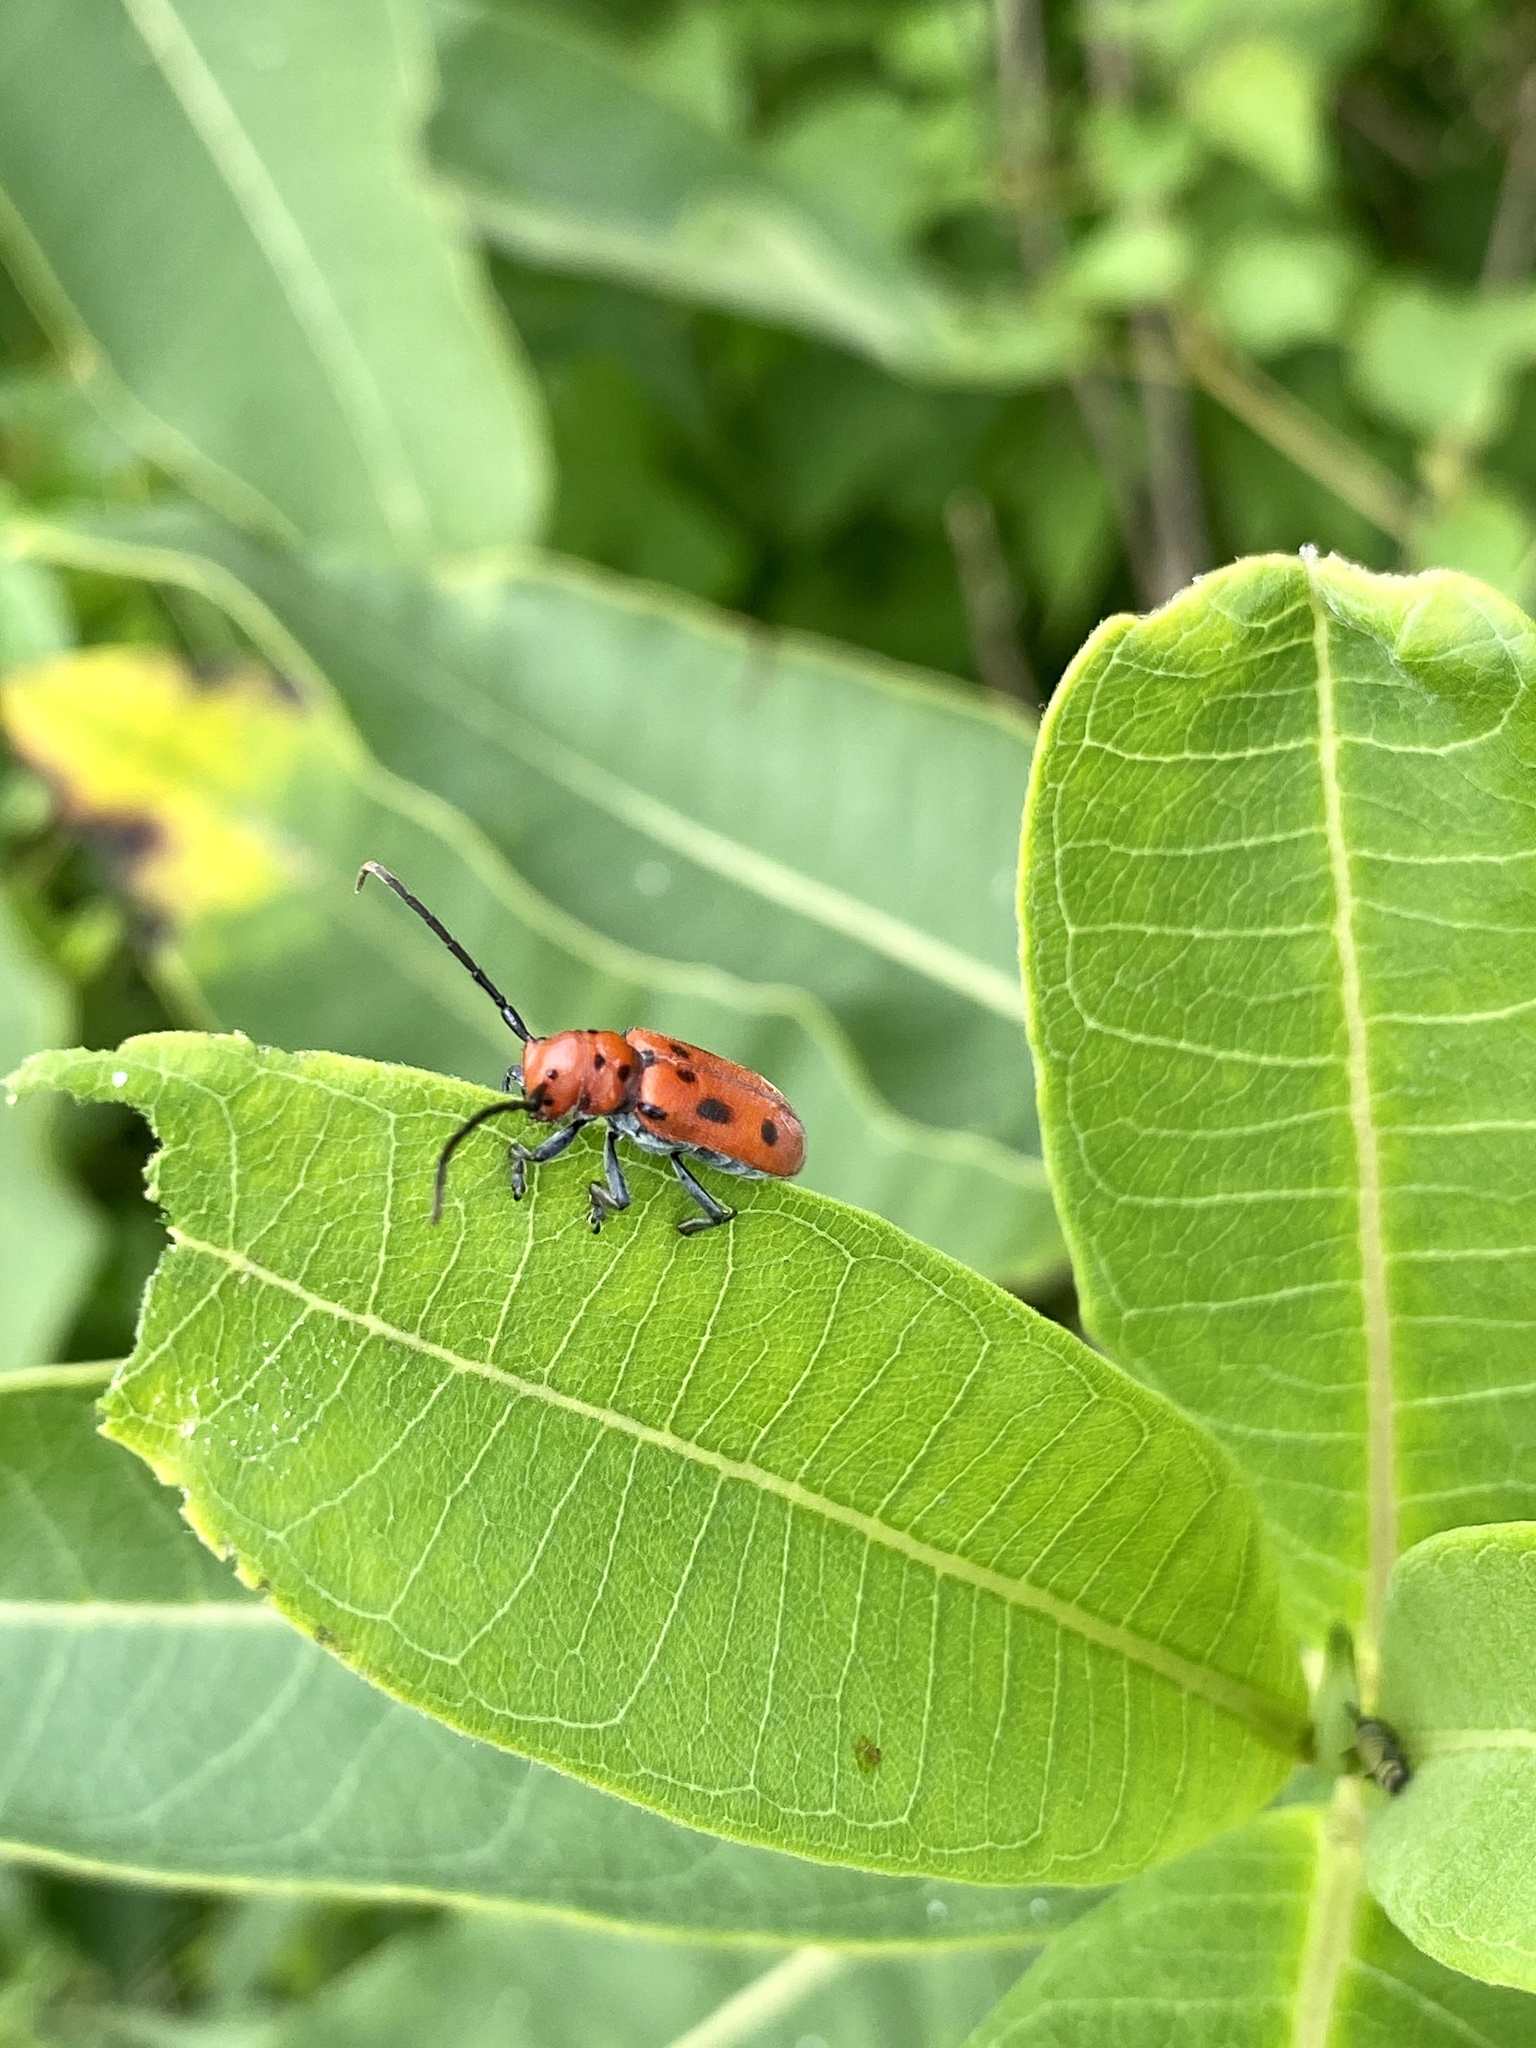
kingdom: Animalia
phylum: Arthropoda
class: Insecta
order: Coleoptera
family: Cerambycidae
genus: Tetraopes
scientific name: Tetraopes tetrophthalmus
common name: Red milkweed beetle
